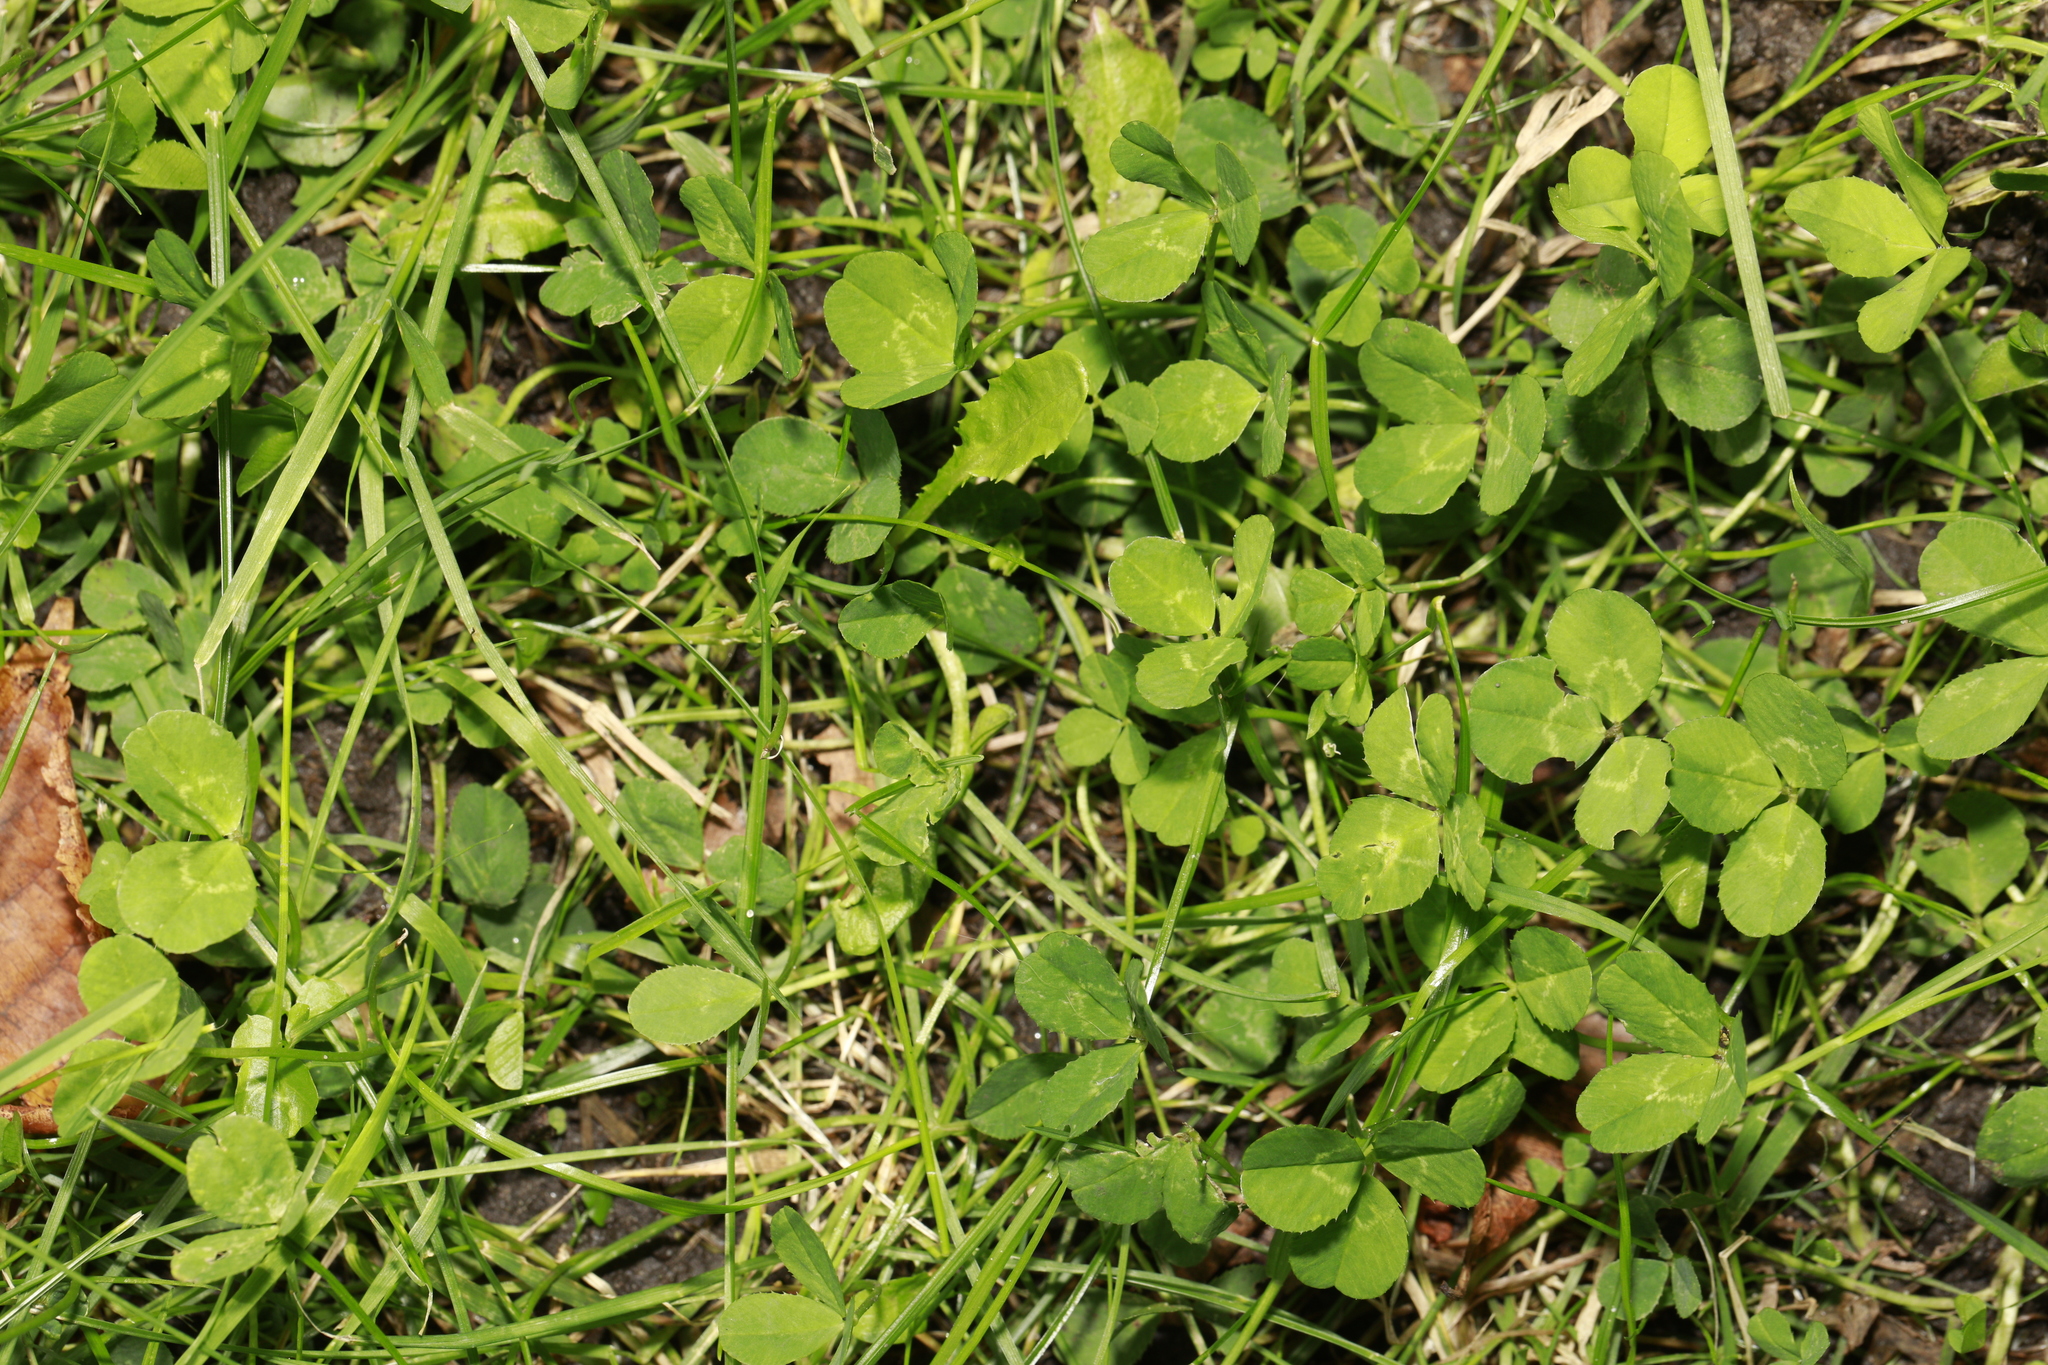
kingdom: Plantae
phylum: Tracheophyta
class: Magnoliopsida
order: Fabales
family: Fabaceae
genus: Trifolium
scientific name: Trifolium repens
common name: White clover
